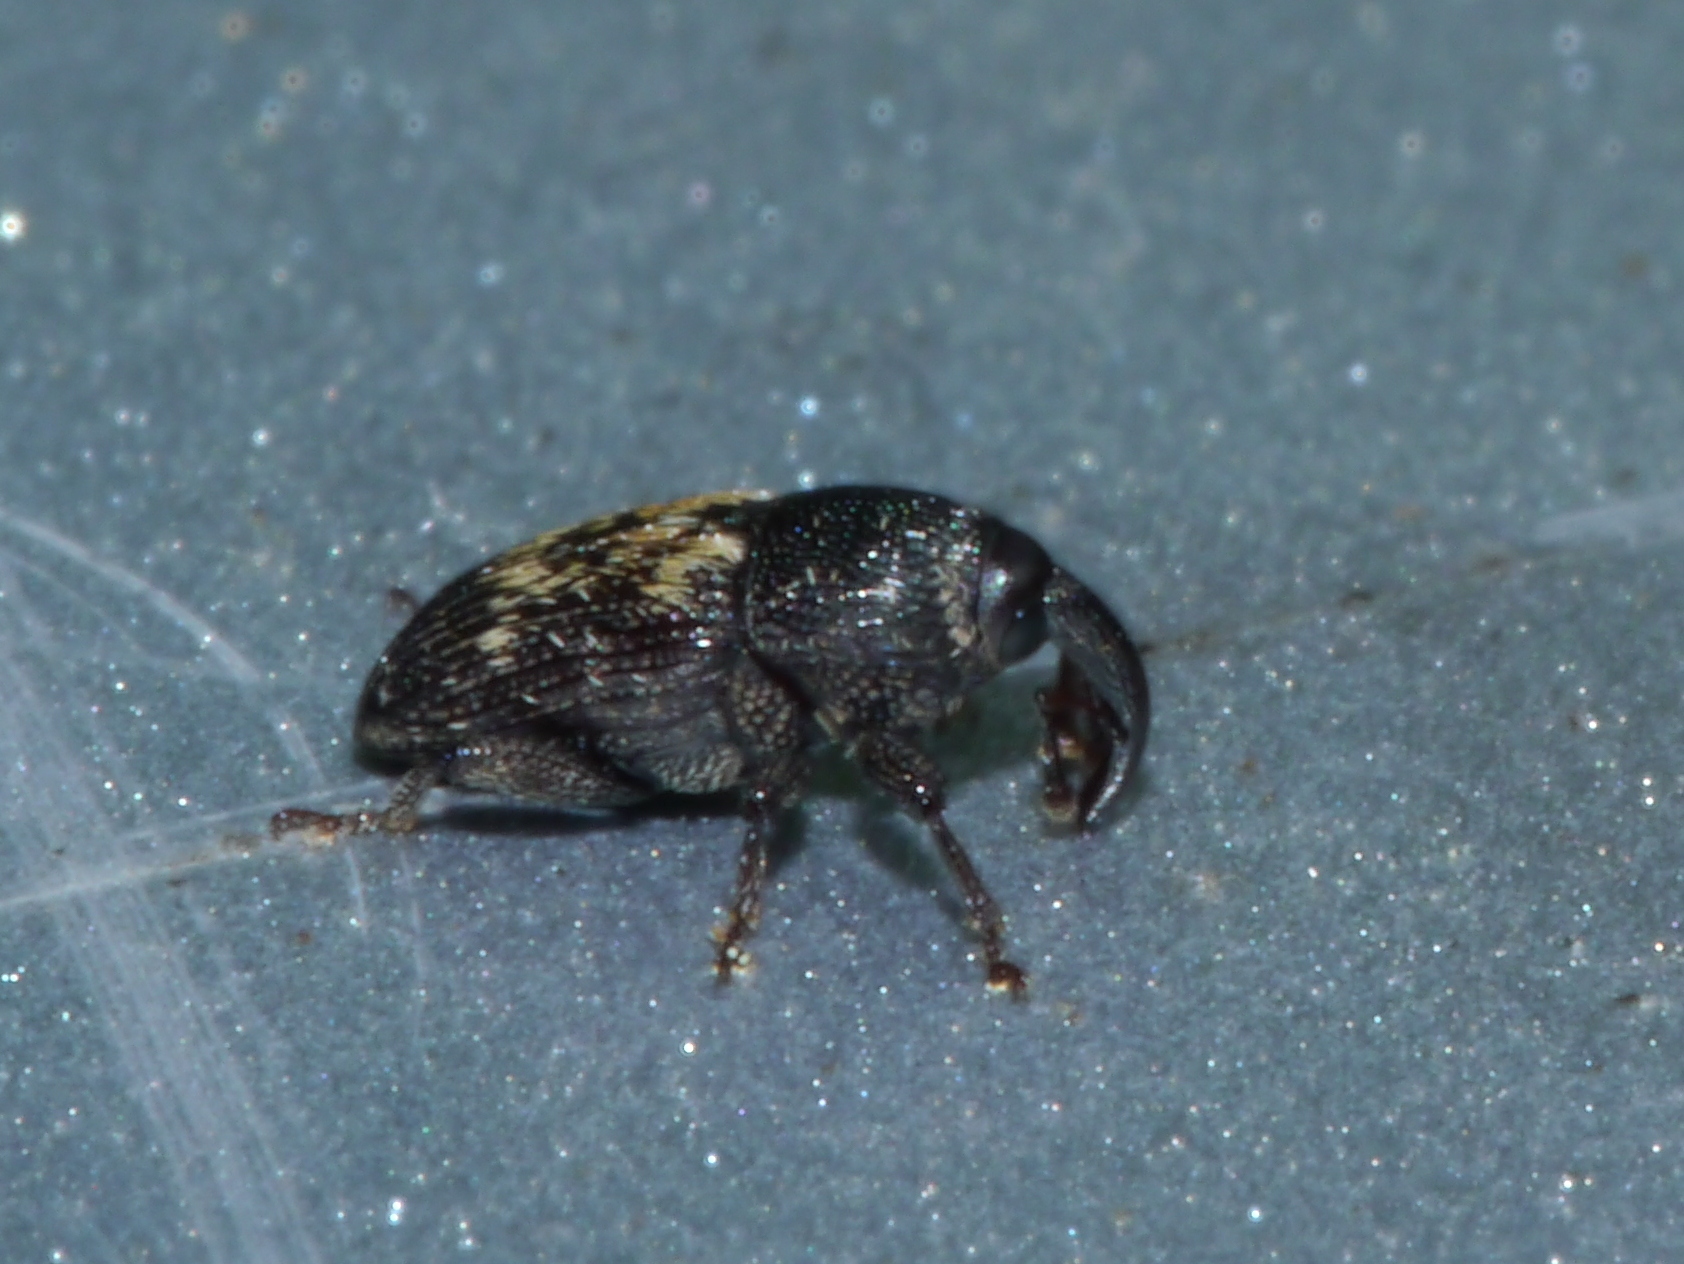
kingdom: Animalia
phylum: Arthropoda
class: Insecta
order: Coleoptera
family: Curculionidae
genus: Glyptobaris
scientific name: Glyptobaris lecontei
